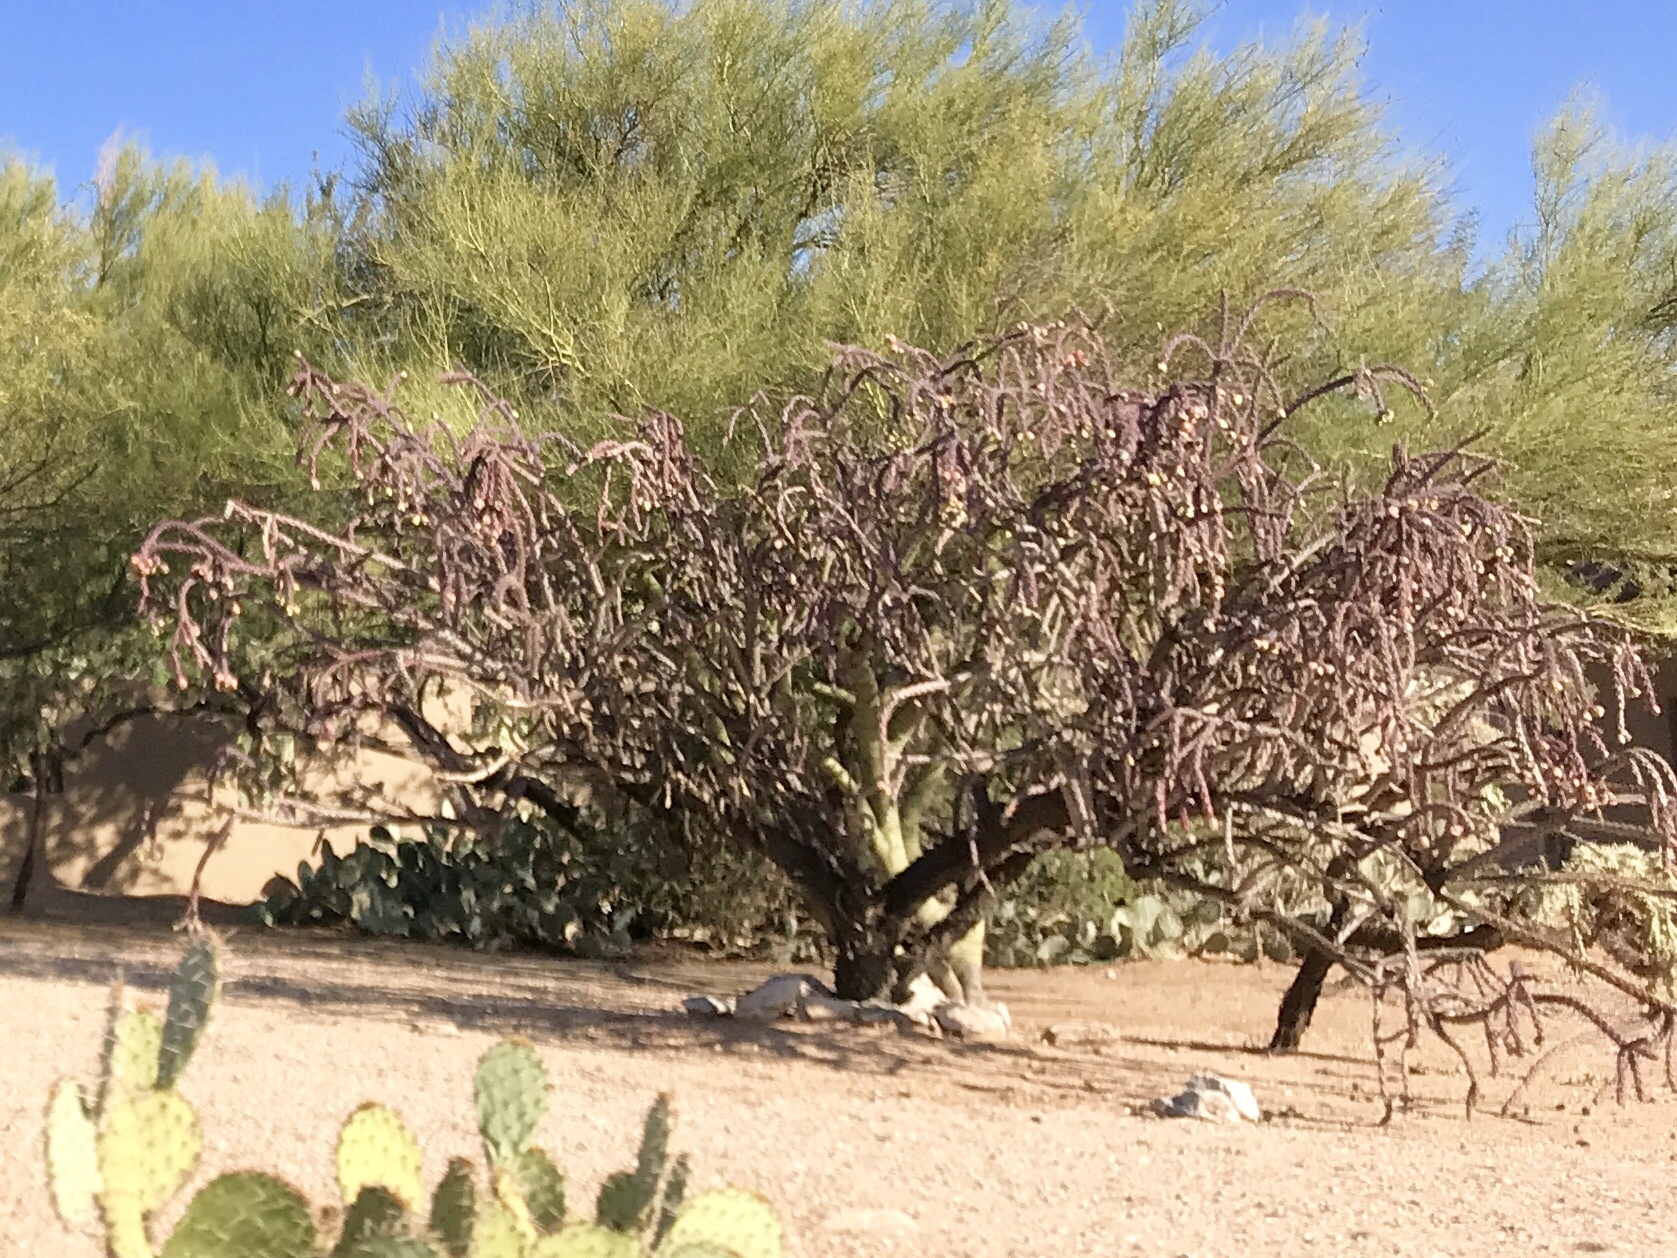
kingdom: Plantae
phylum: Tracheophyta
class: Magnoliopsida
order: Caryophyllales
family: Cactaceae
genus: Cylindropuntia
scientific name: Cylindropuntia thurberi
